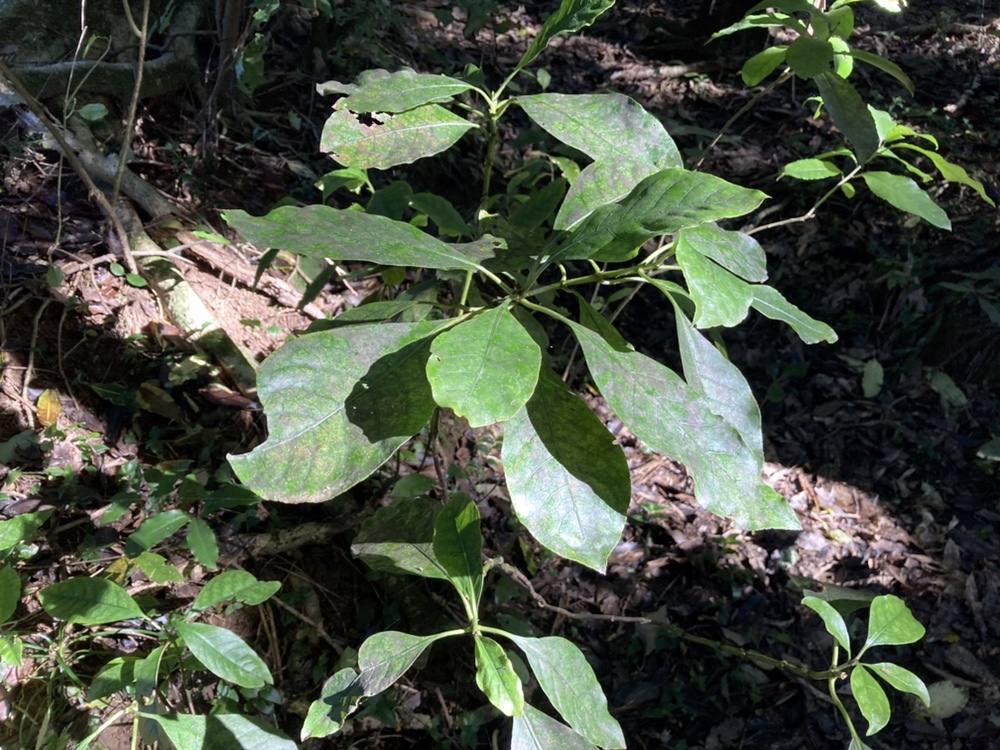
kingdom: Plantae
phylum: Tracheophyta
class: Magnoliopsida
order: Gentianales
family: Rubiaceae
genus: Coprosma
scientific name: Coprosma autumnalis
